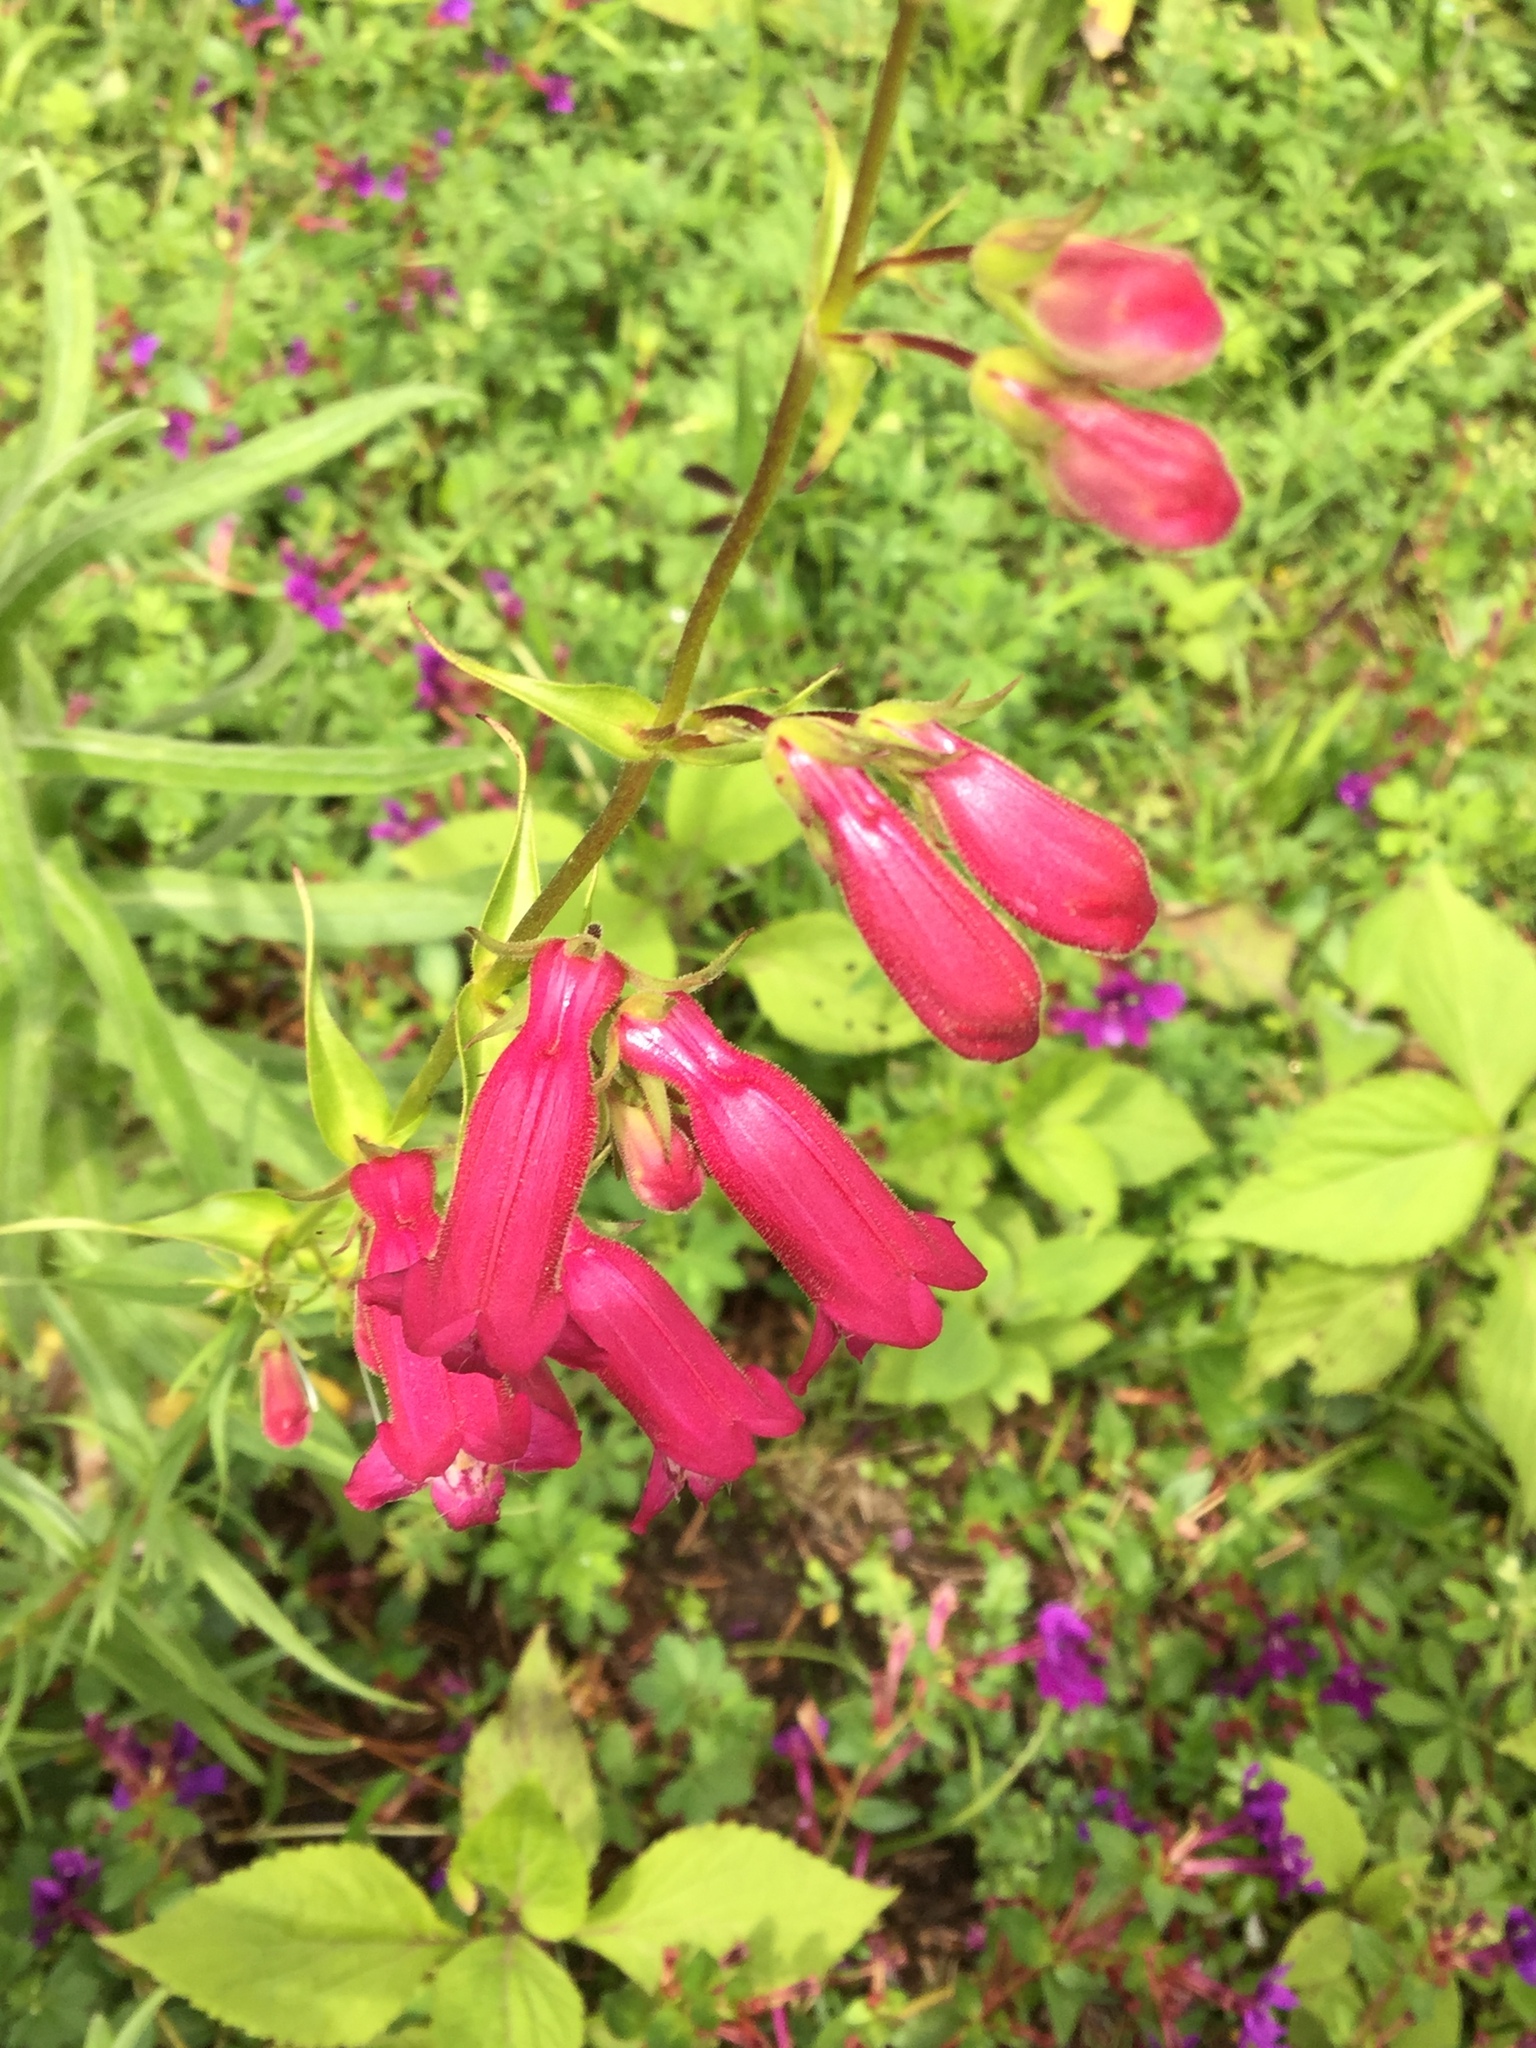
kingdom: Plantae
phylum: Tracheophyta
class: Magnoliopsida
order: Lamiales
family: Plantaginaceae
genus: Penstemon
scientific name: Penstemon roseus
